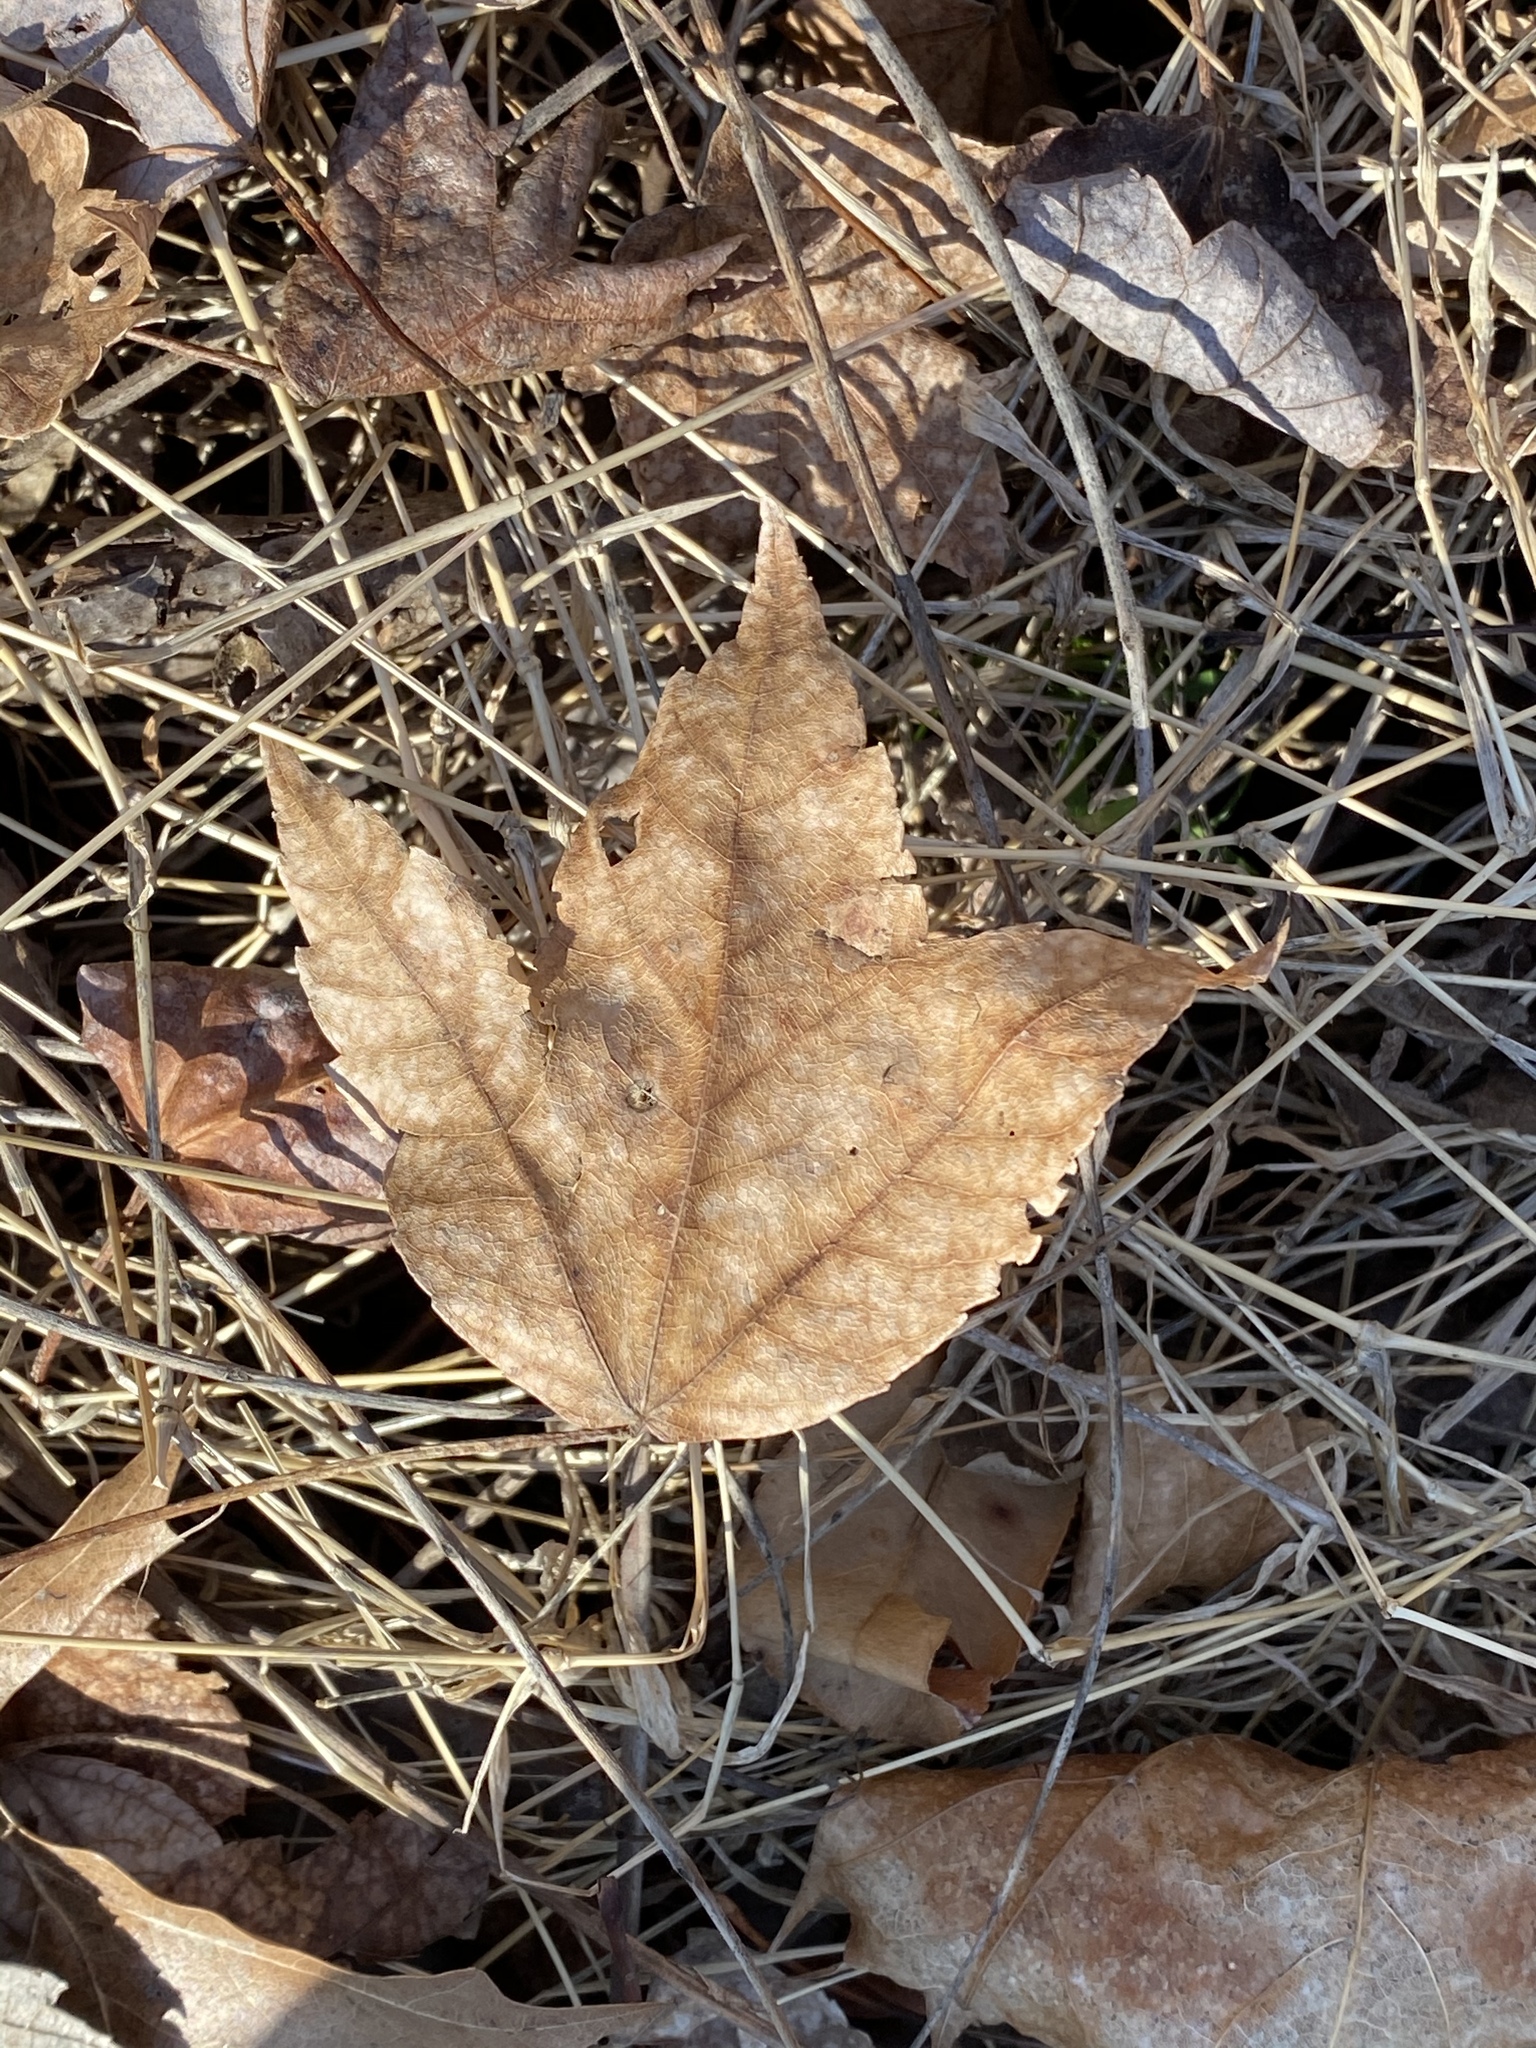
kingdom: Plantae
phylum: Tracheophyta
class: Magnoliopsida
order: Sapindales
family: Sapindaceae
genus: Acer
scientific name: Acer rubrum
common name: Red maple
